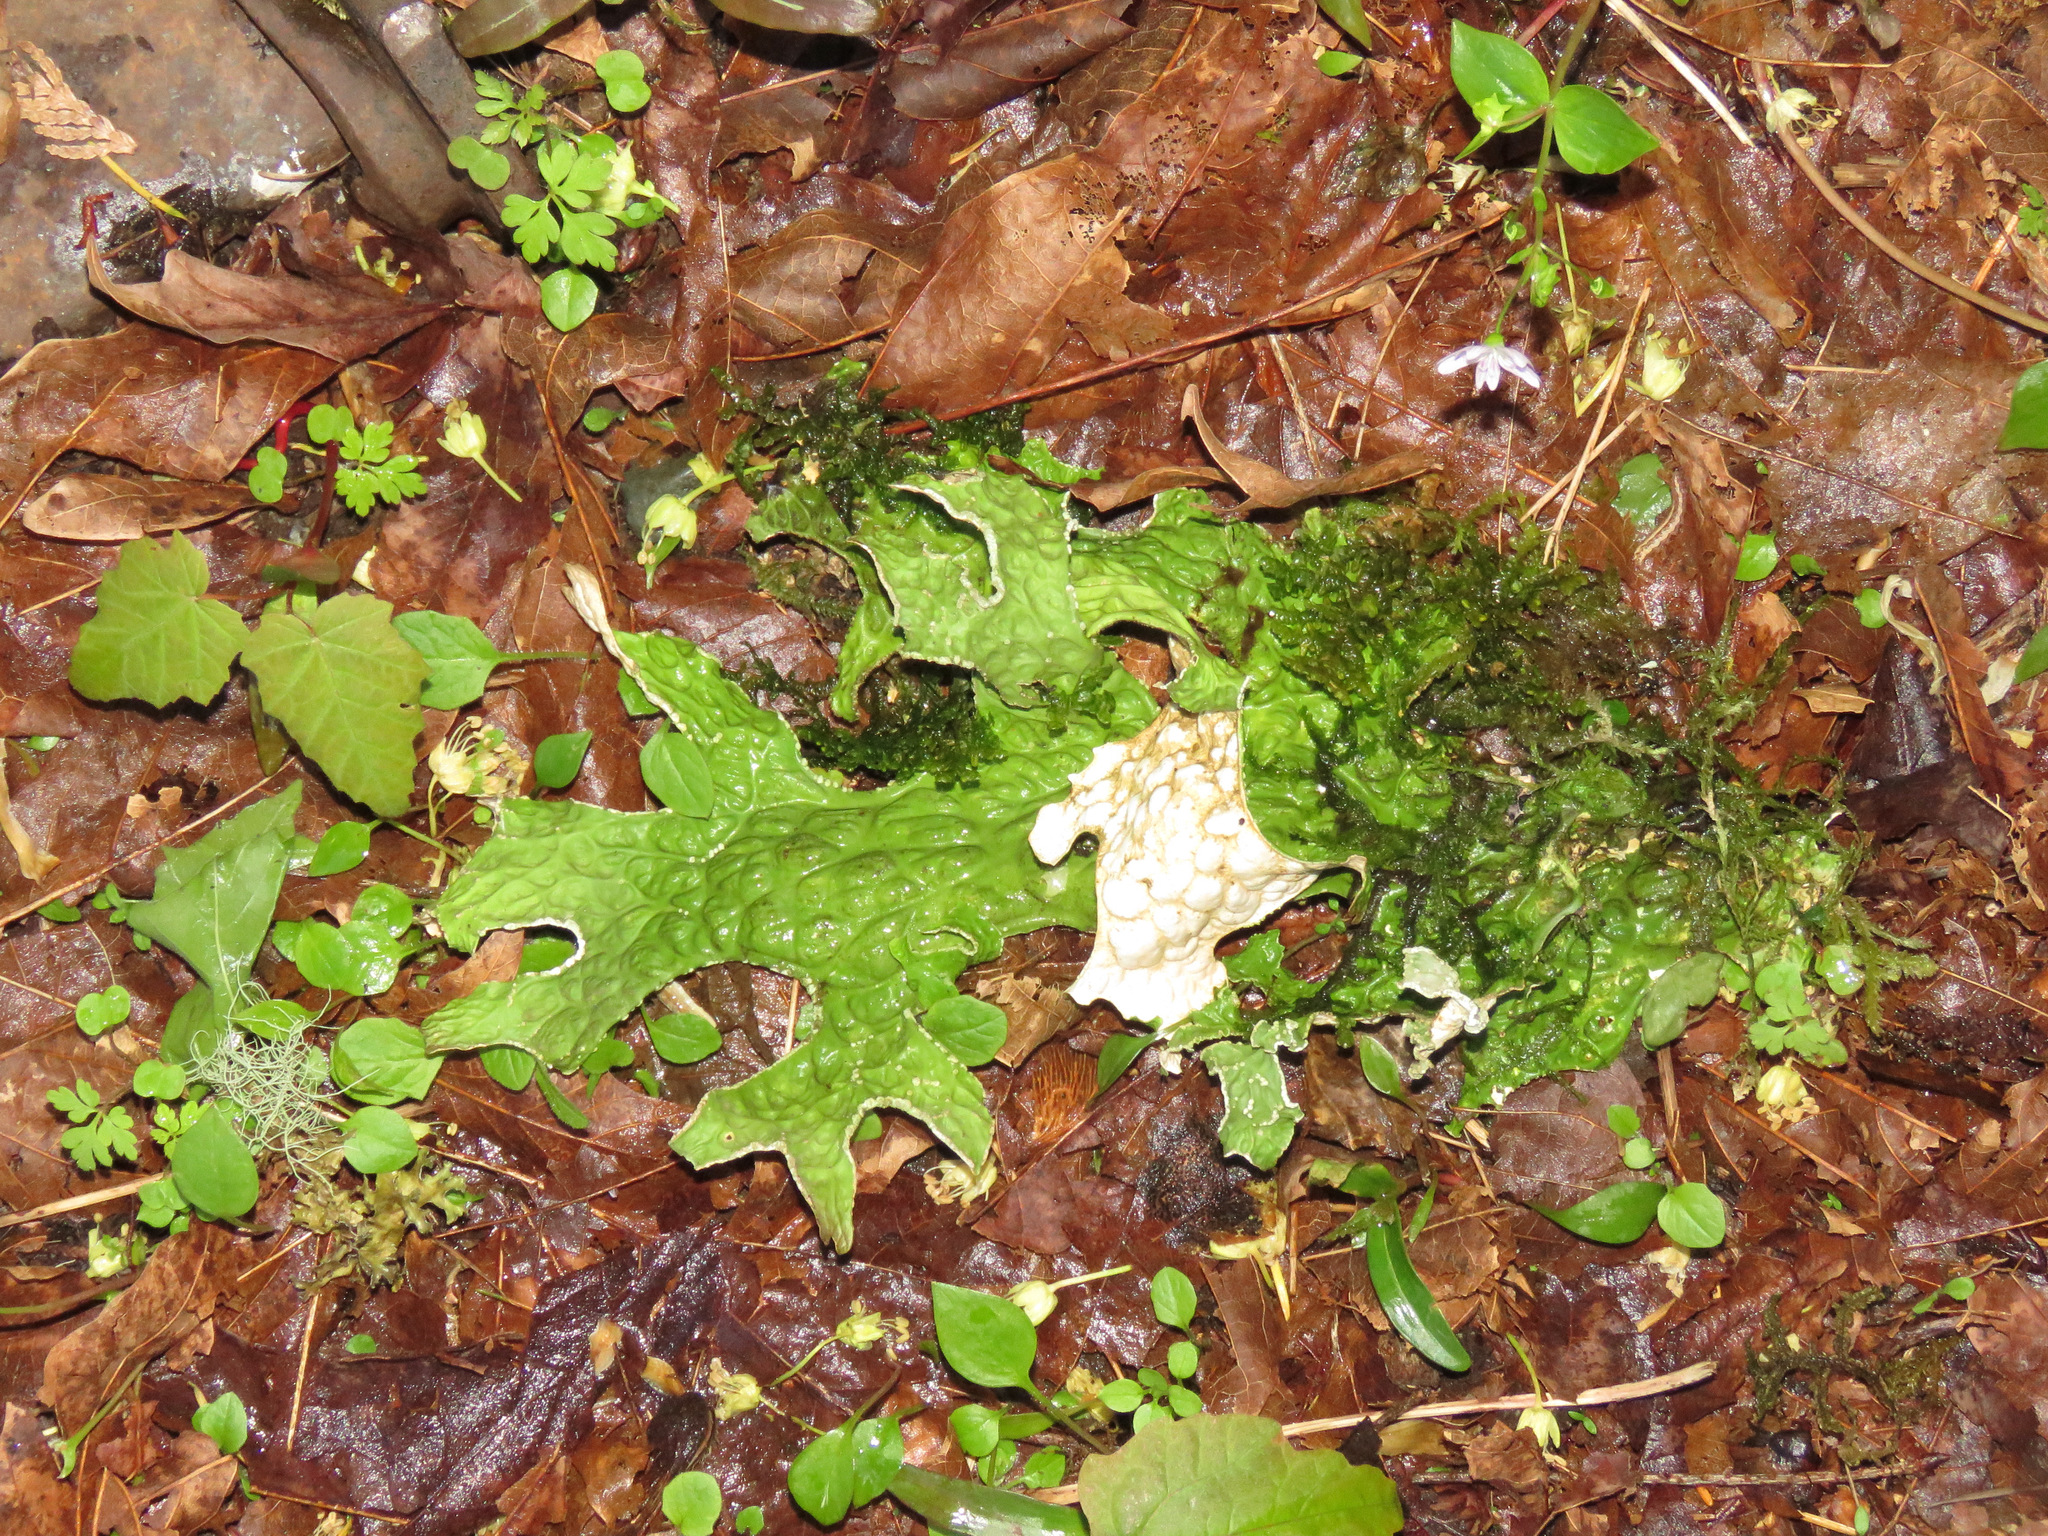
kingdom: Fungi
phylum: Ascomycota
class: Lecanoromycetes
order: Peltigerales
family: Lobariaceae
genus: Lobaria
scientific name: Lobaria pulmonaria
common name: Lungwort
